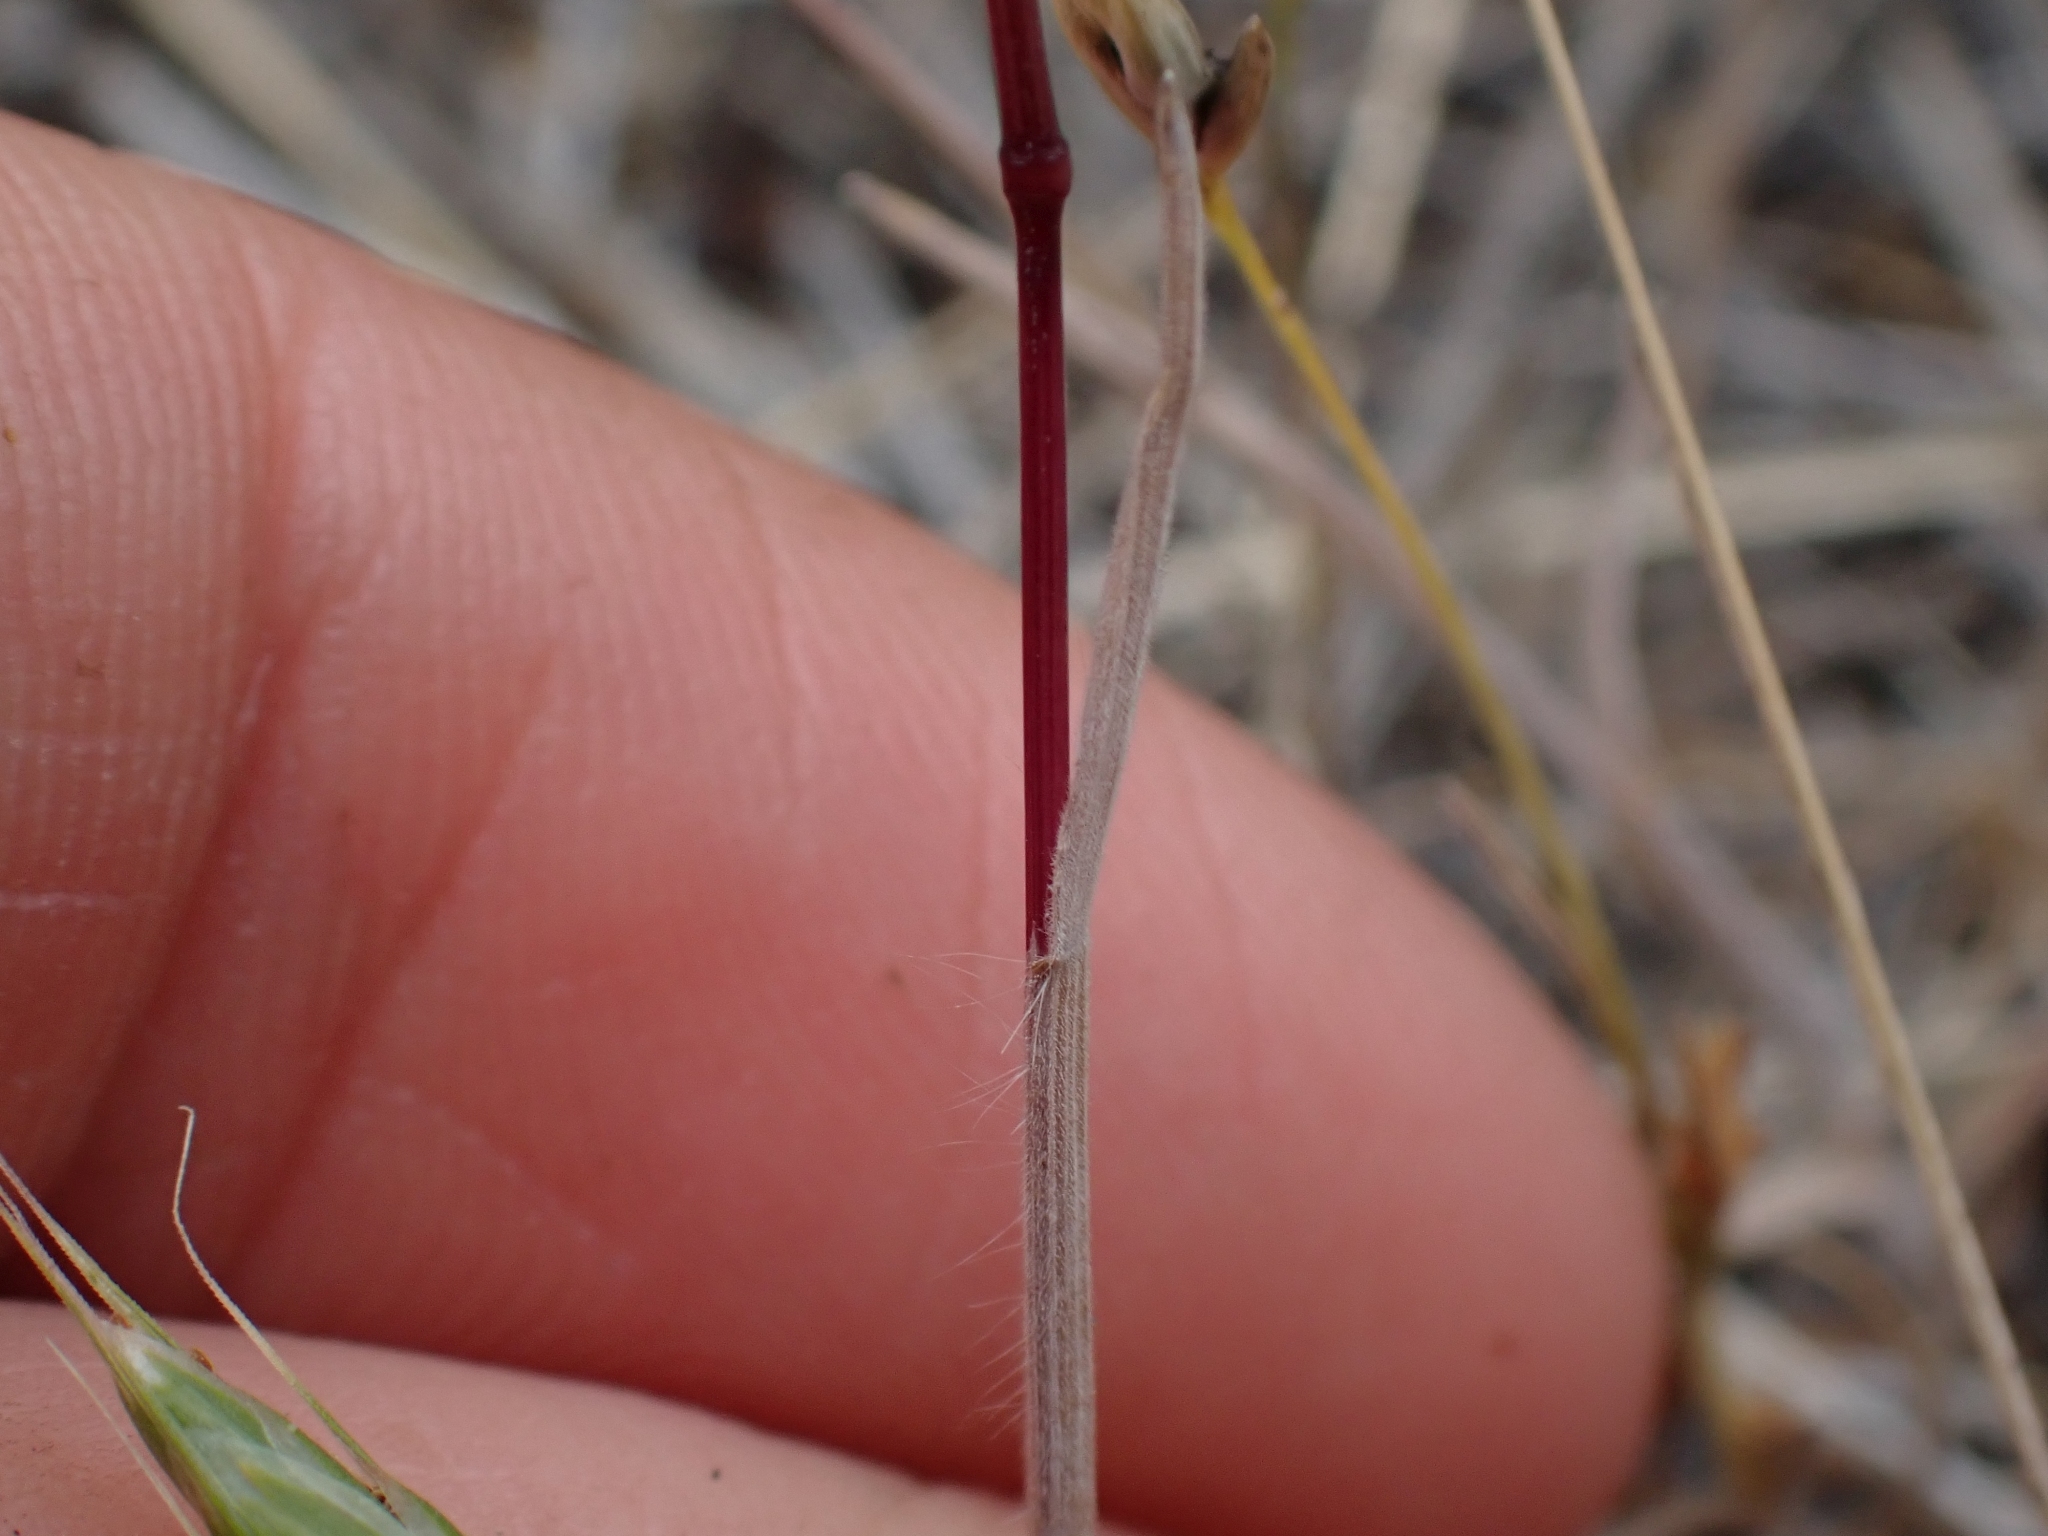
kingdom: Plantae
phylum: Tracheophyta
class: Liliopsida
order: Poales
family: Poaceae
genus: Bromus
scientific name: Bromus tectorum
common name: Cheatgrass
